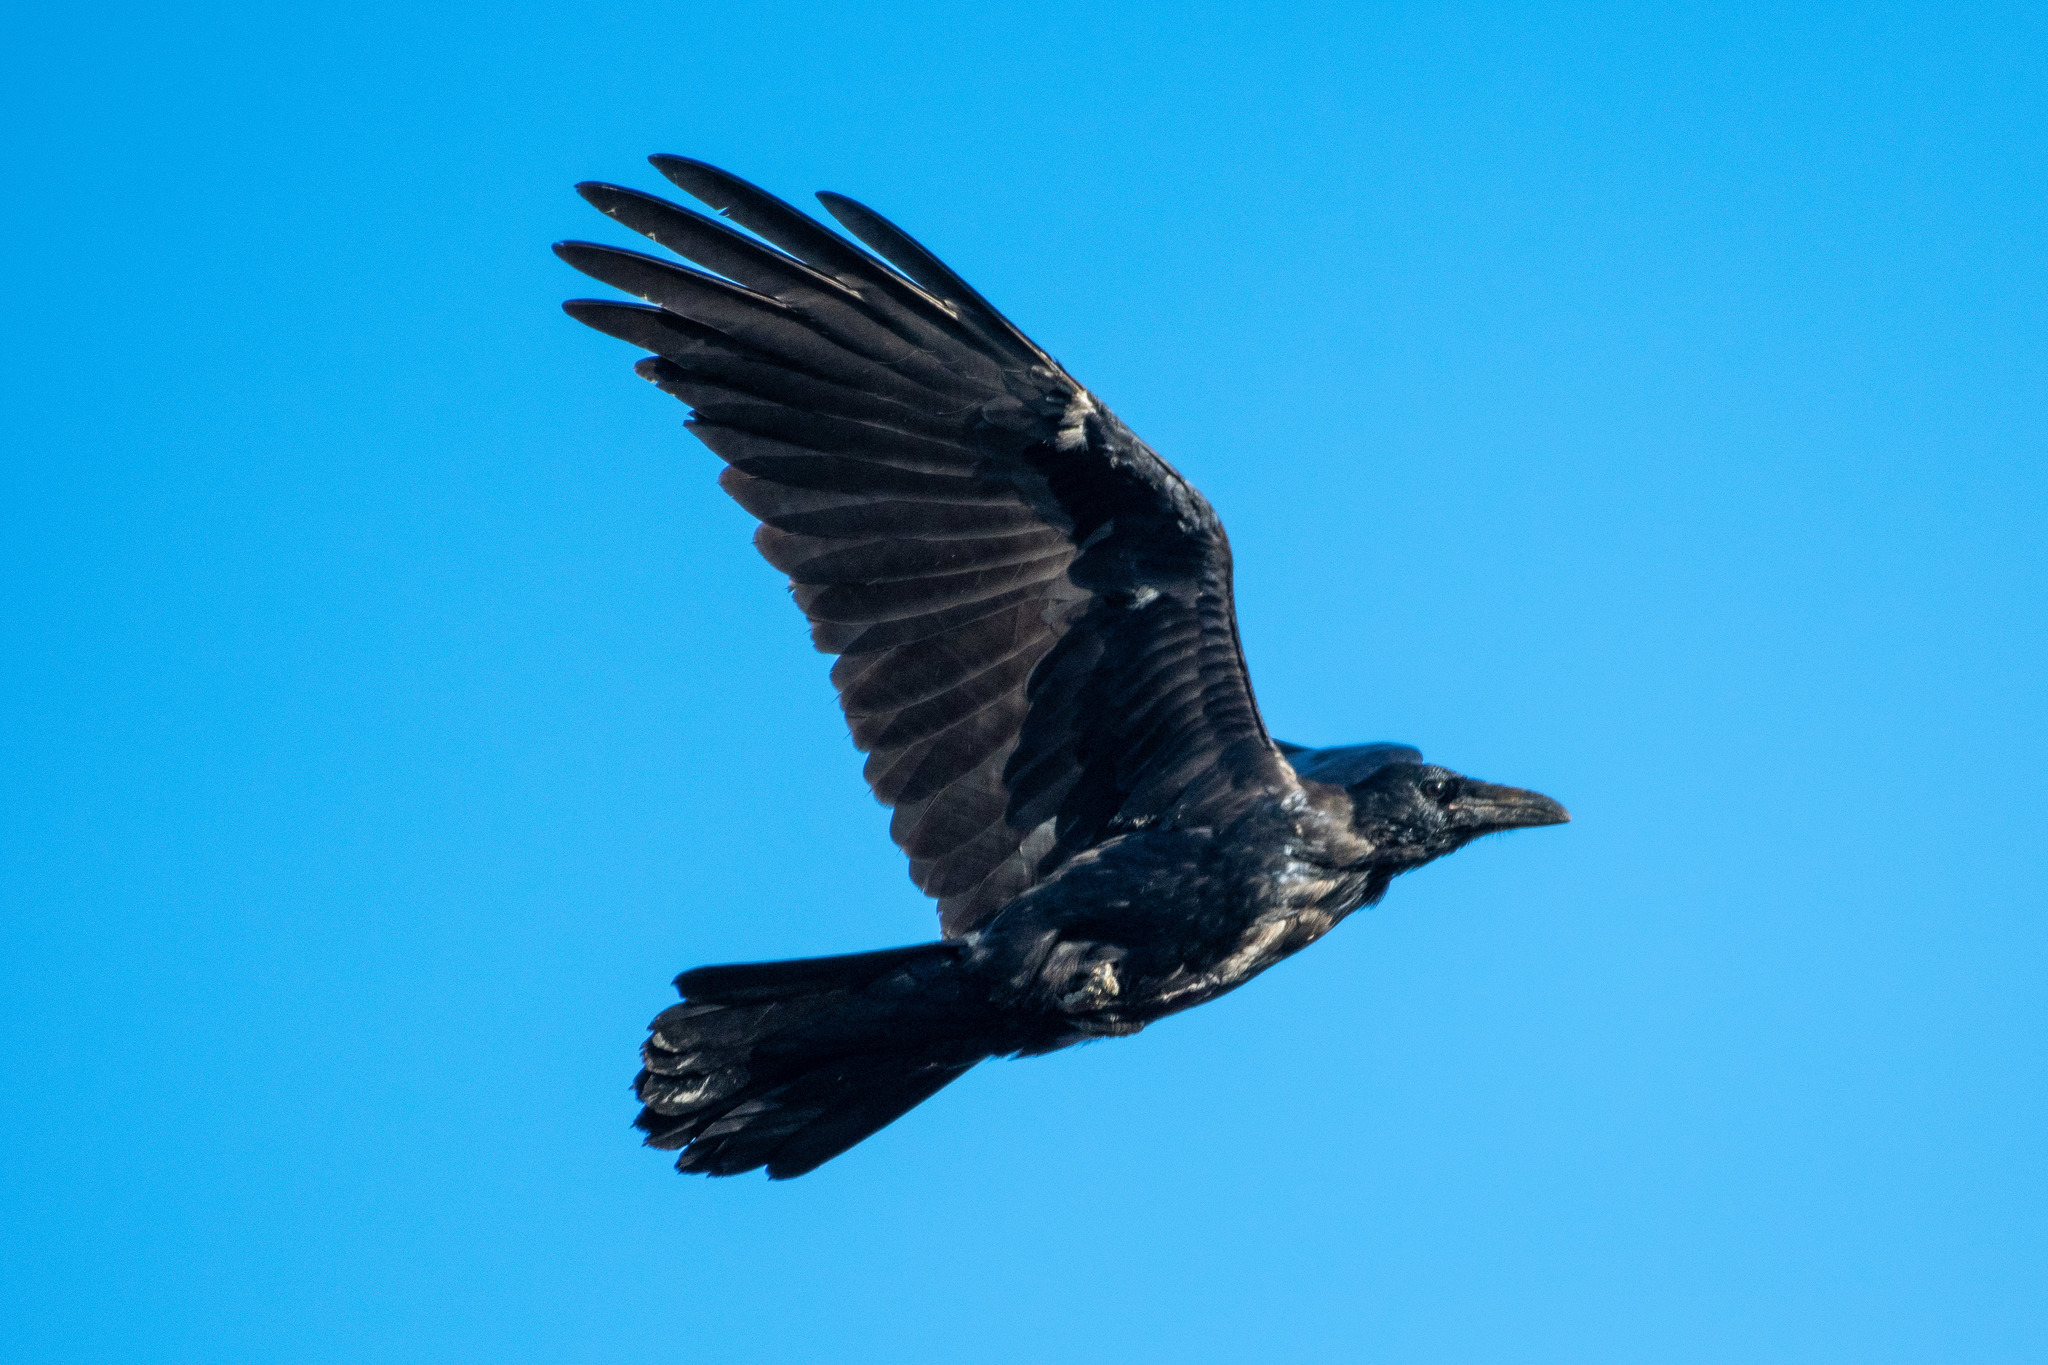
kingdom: Animalia
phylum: Chordata
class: Aves
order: Passeriformes
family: Corvidae
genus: Corvus
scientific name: Corvus corax
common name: Common raven
